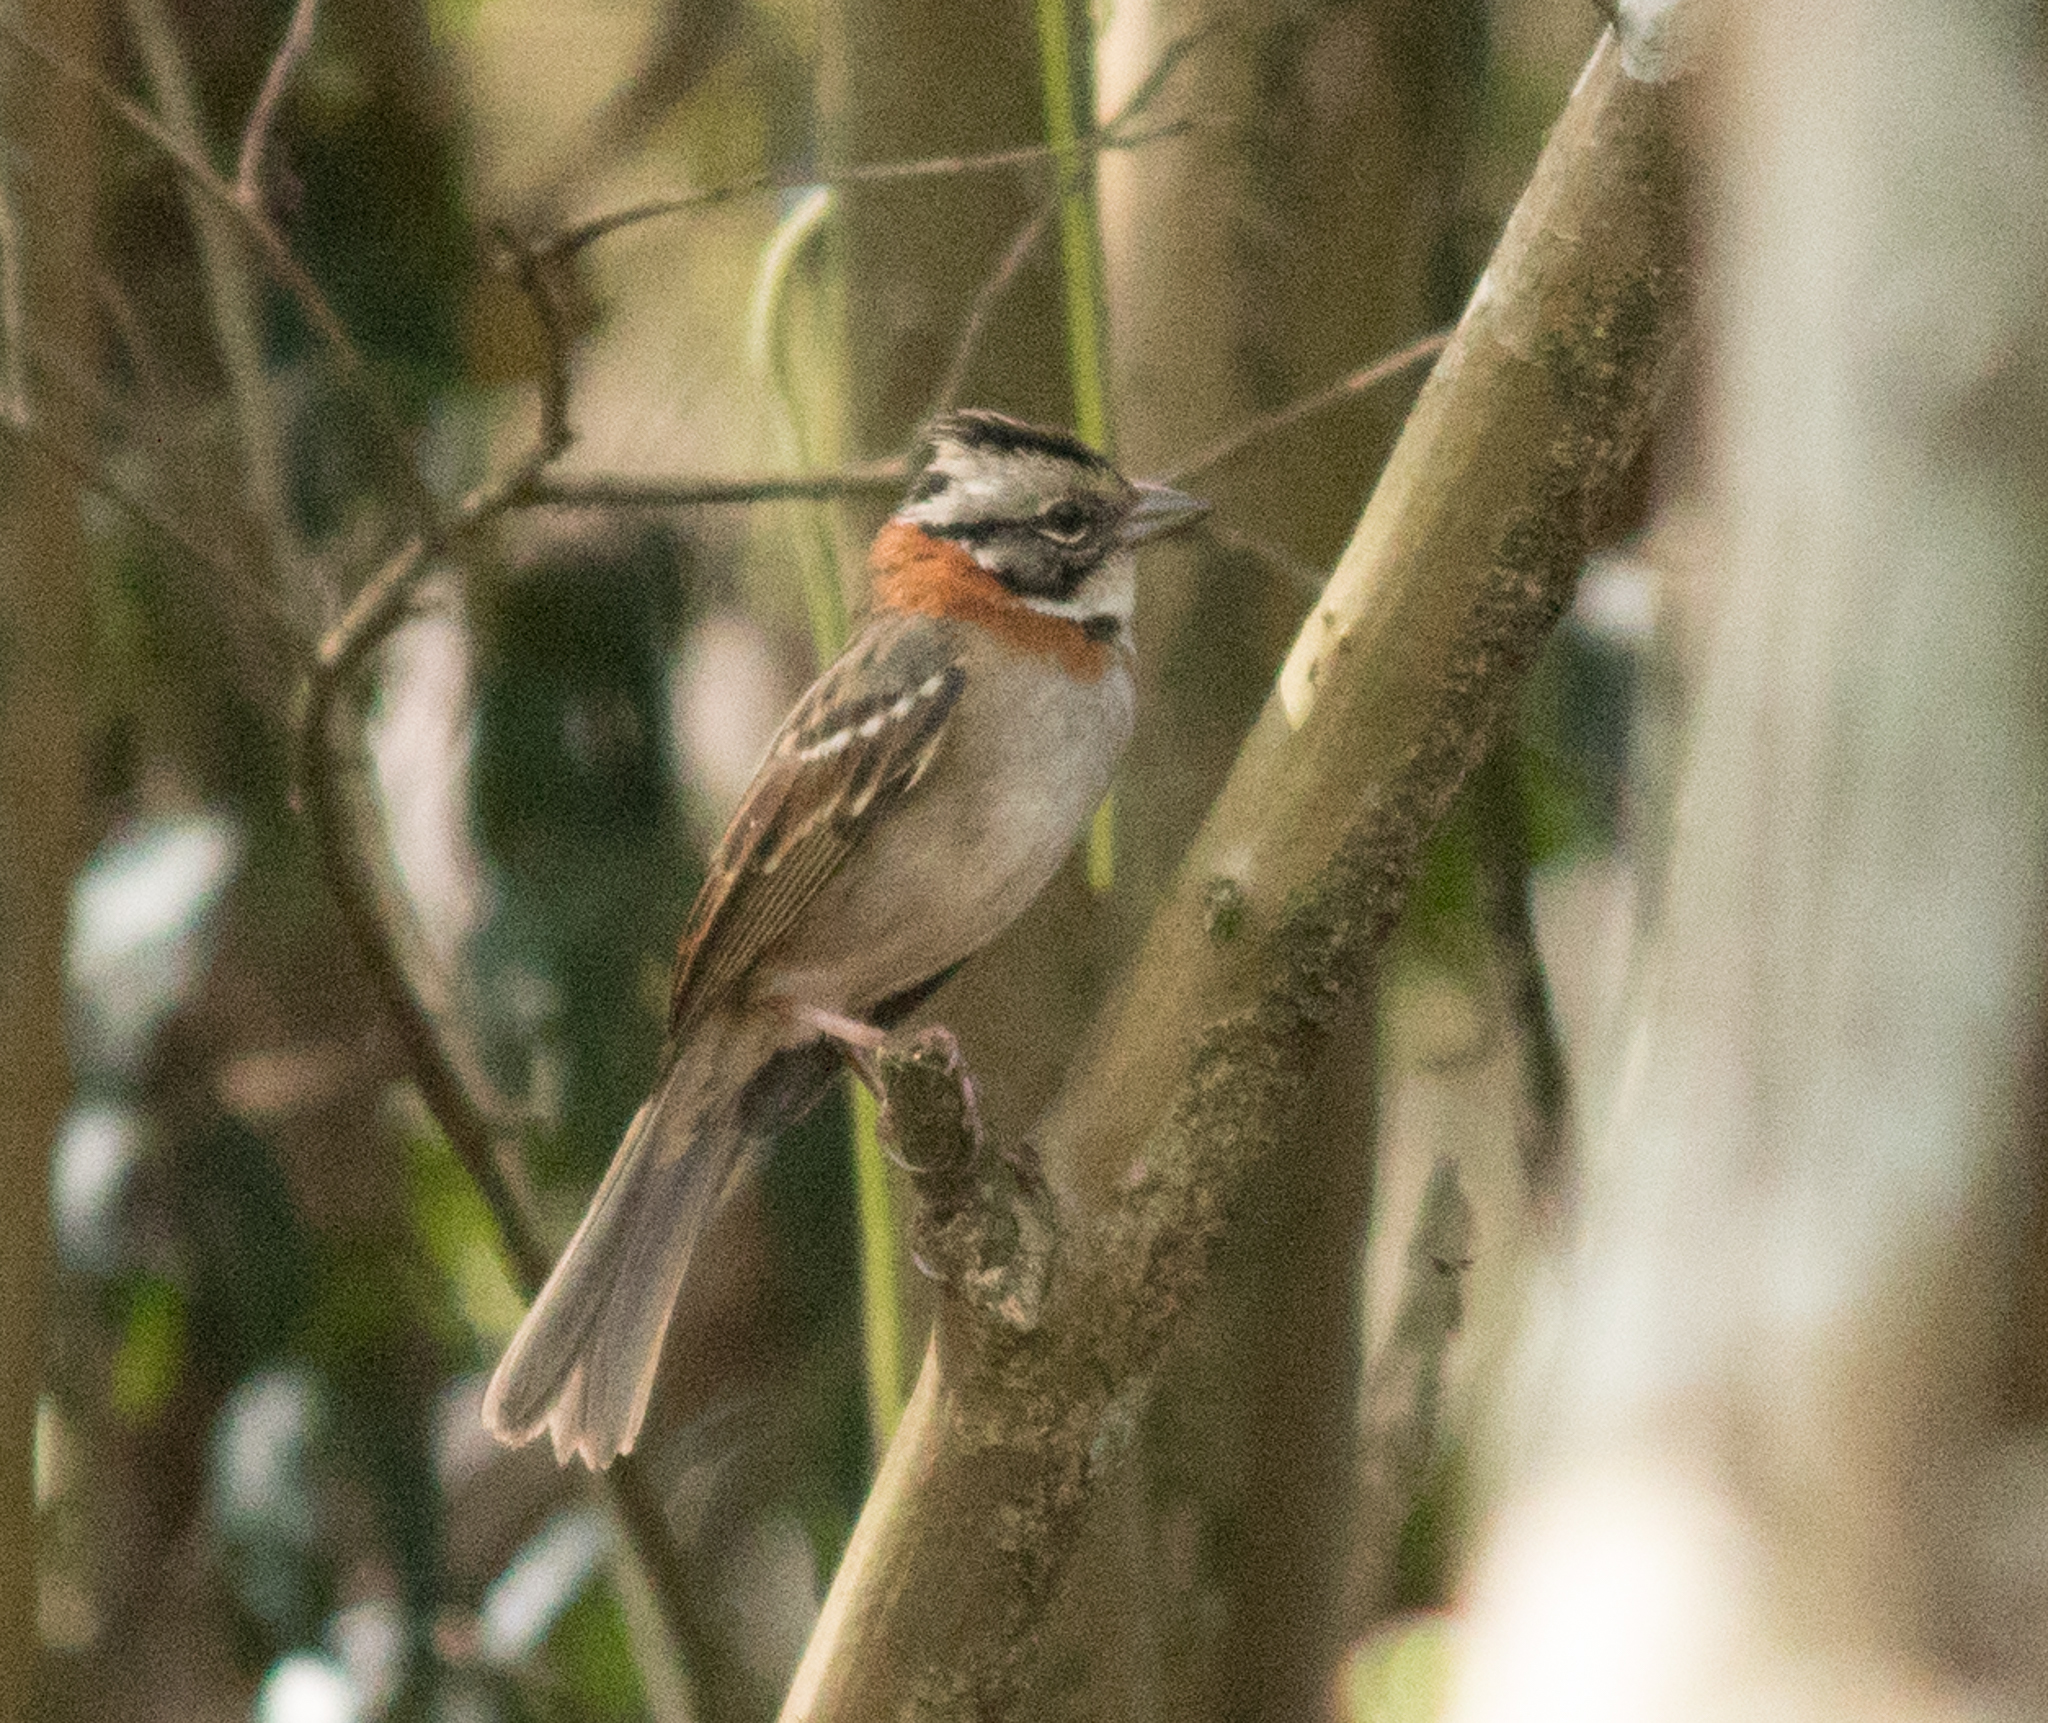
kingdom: Animalia
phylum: Chordata
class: Aves
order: Passeriformes
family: Passerellidae
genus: Zonotrichia
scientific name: Zonotrichia capensis
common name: Rufous-collared sparrow
